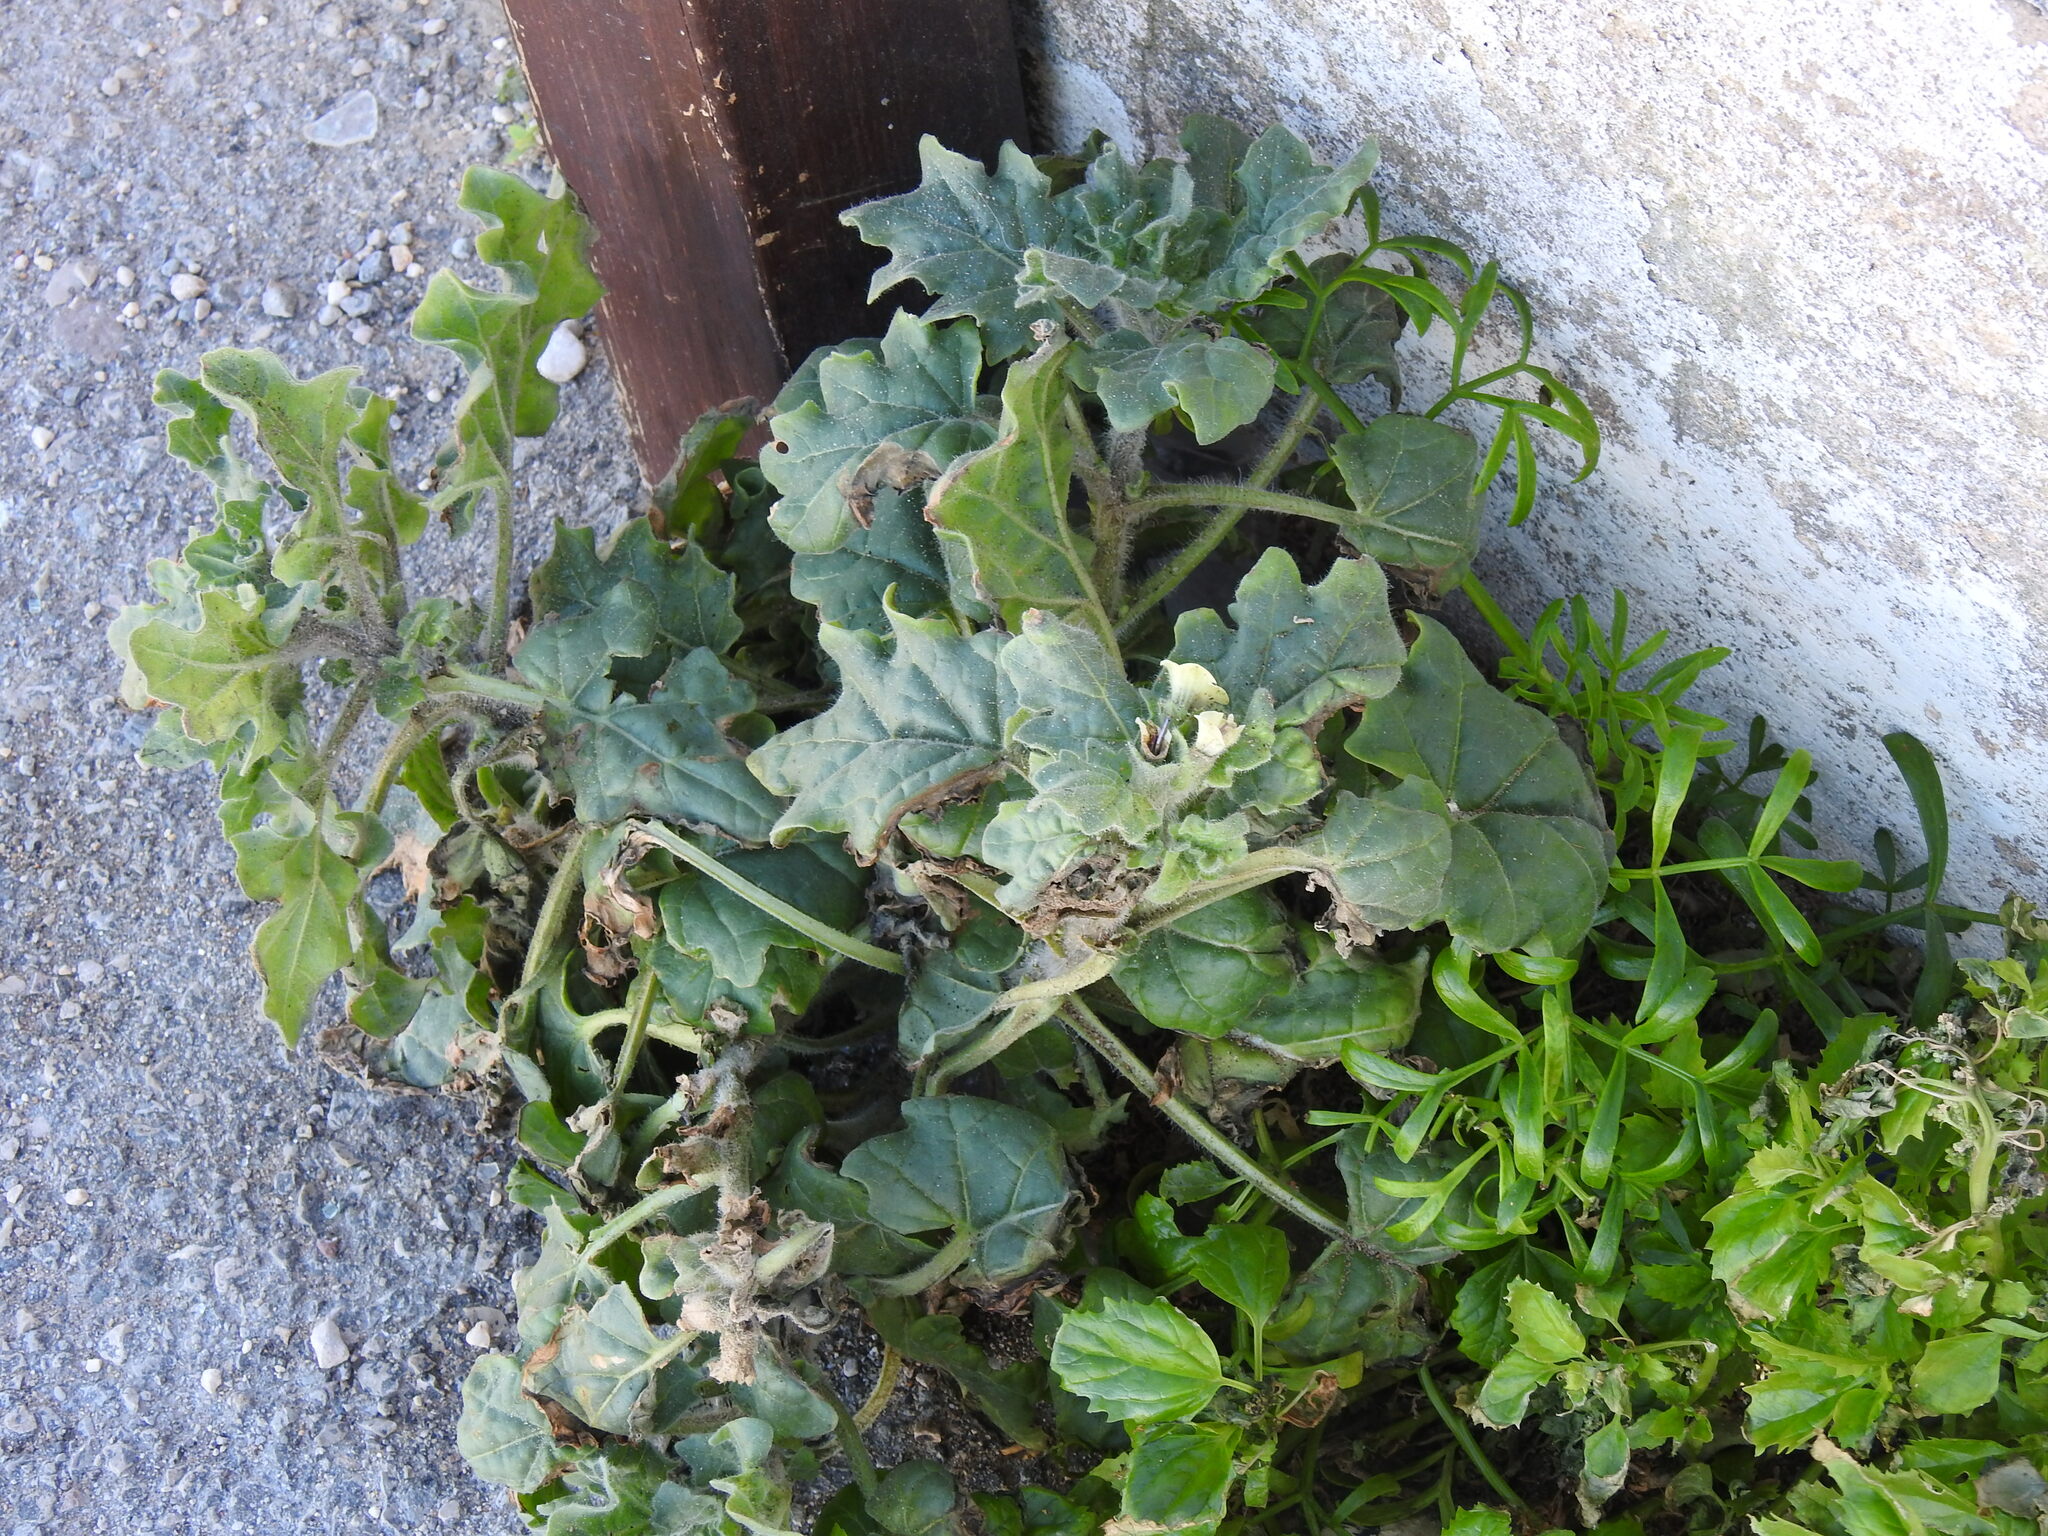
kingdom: Plantae
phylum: Tracheophyta
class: Magnoliopsida
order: Solanales
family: Solanaceae
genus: Hyoscyamus
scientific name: Hyoscyamus albus
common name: White henbane
